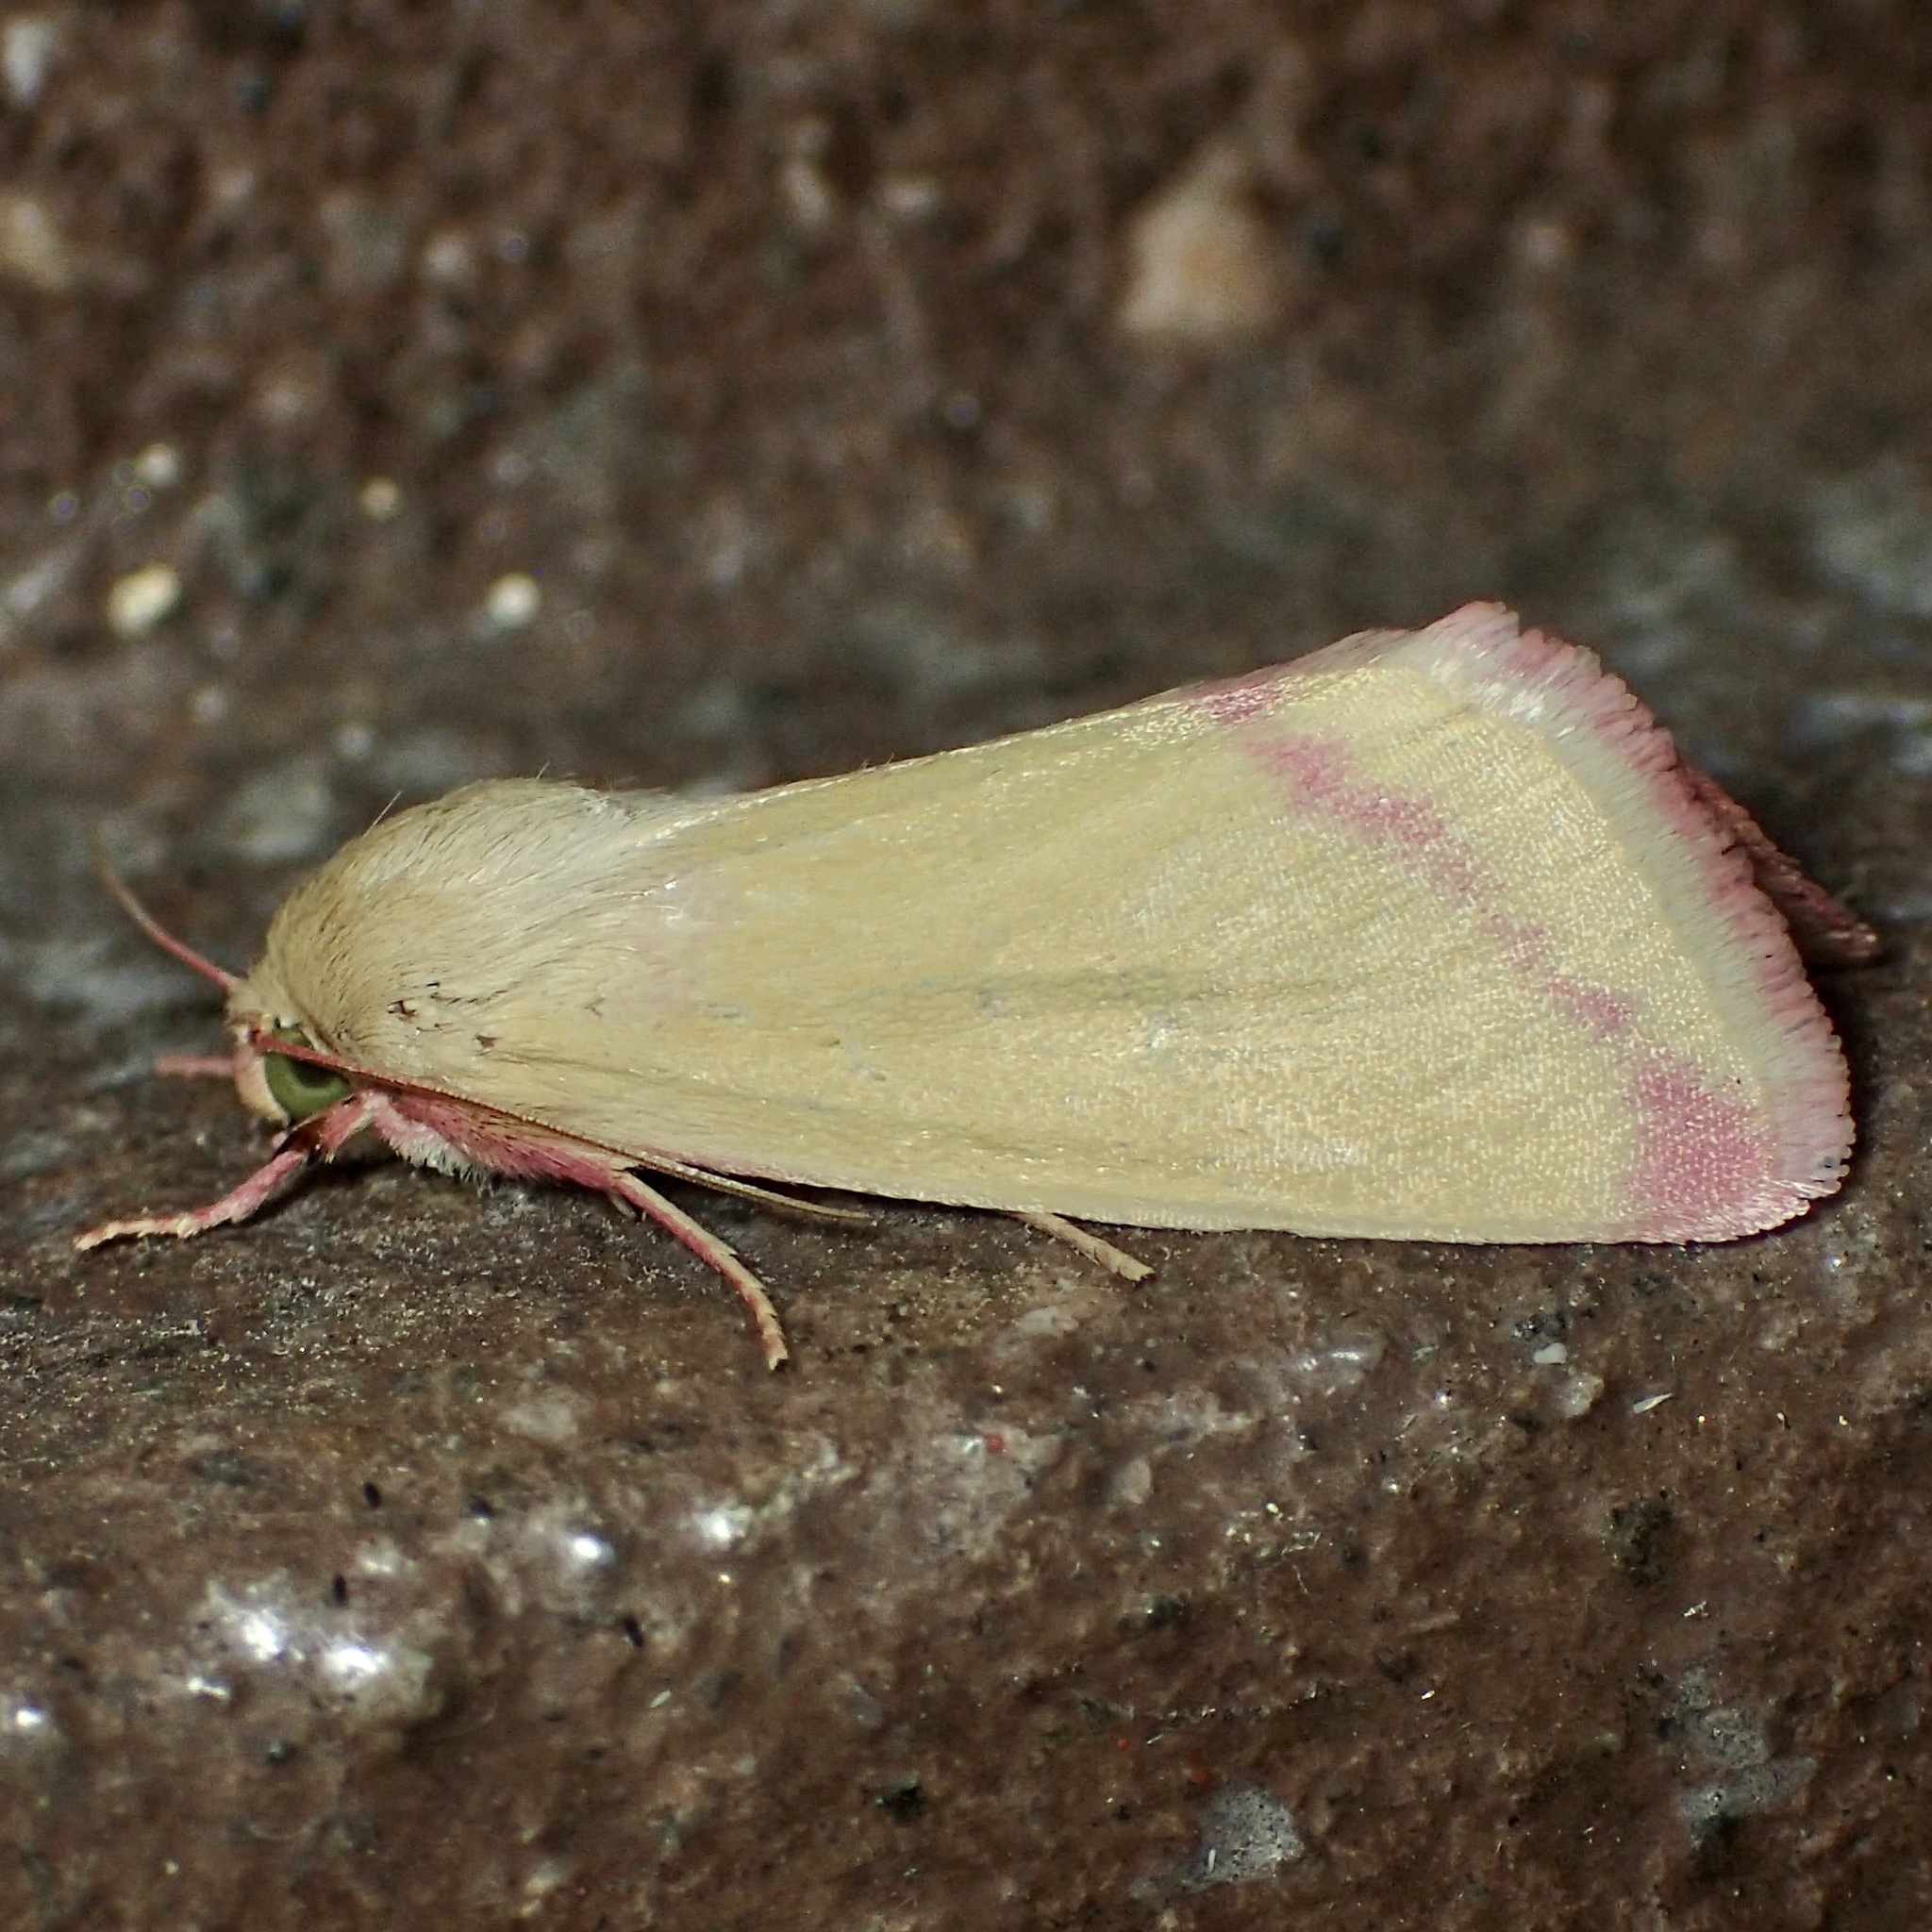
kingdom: Animalia
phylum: Arthropoda
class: Insecta
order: Lepidoptera
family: Noctuidae
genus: Heliocheilus
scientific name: Heliocheilus toralis
